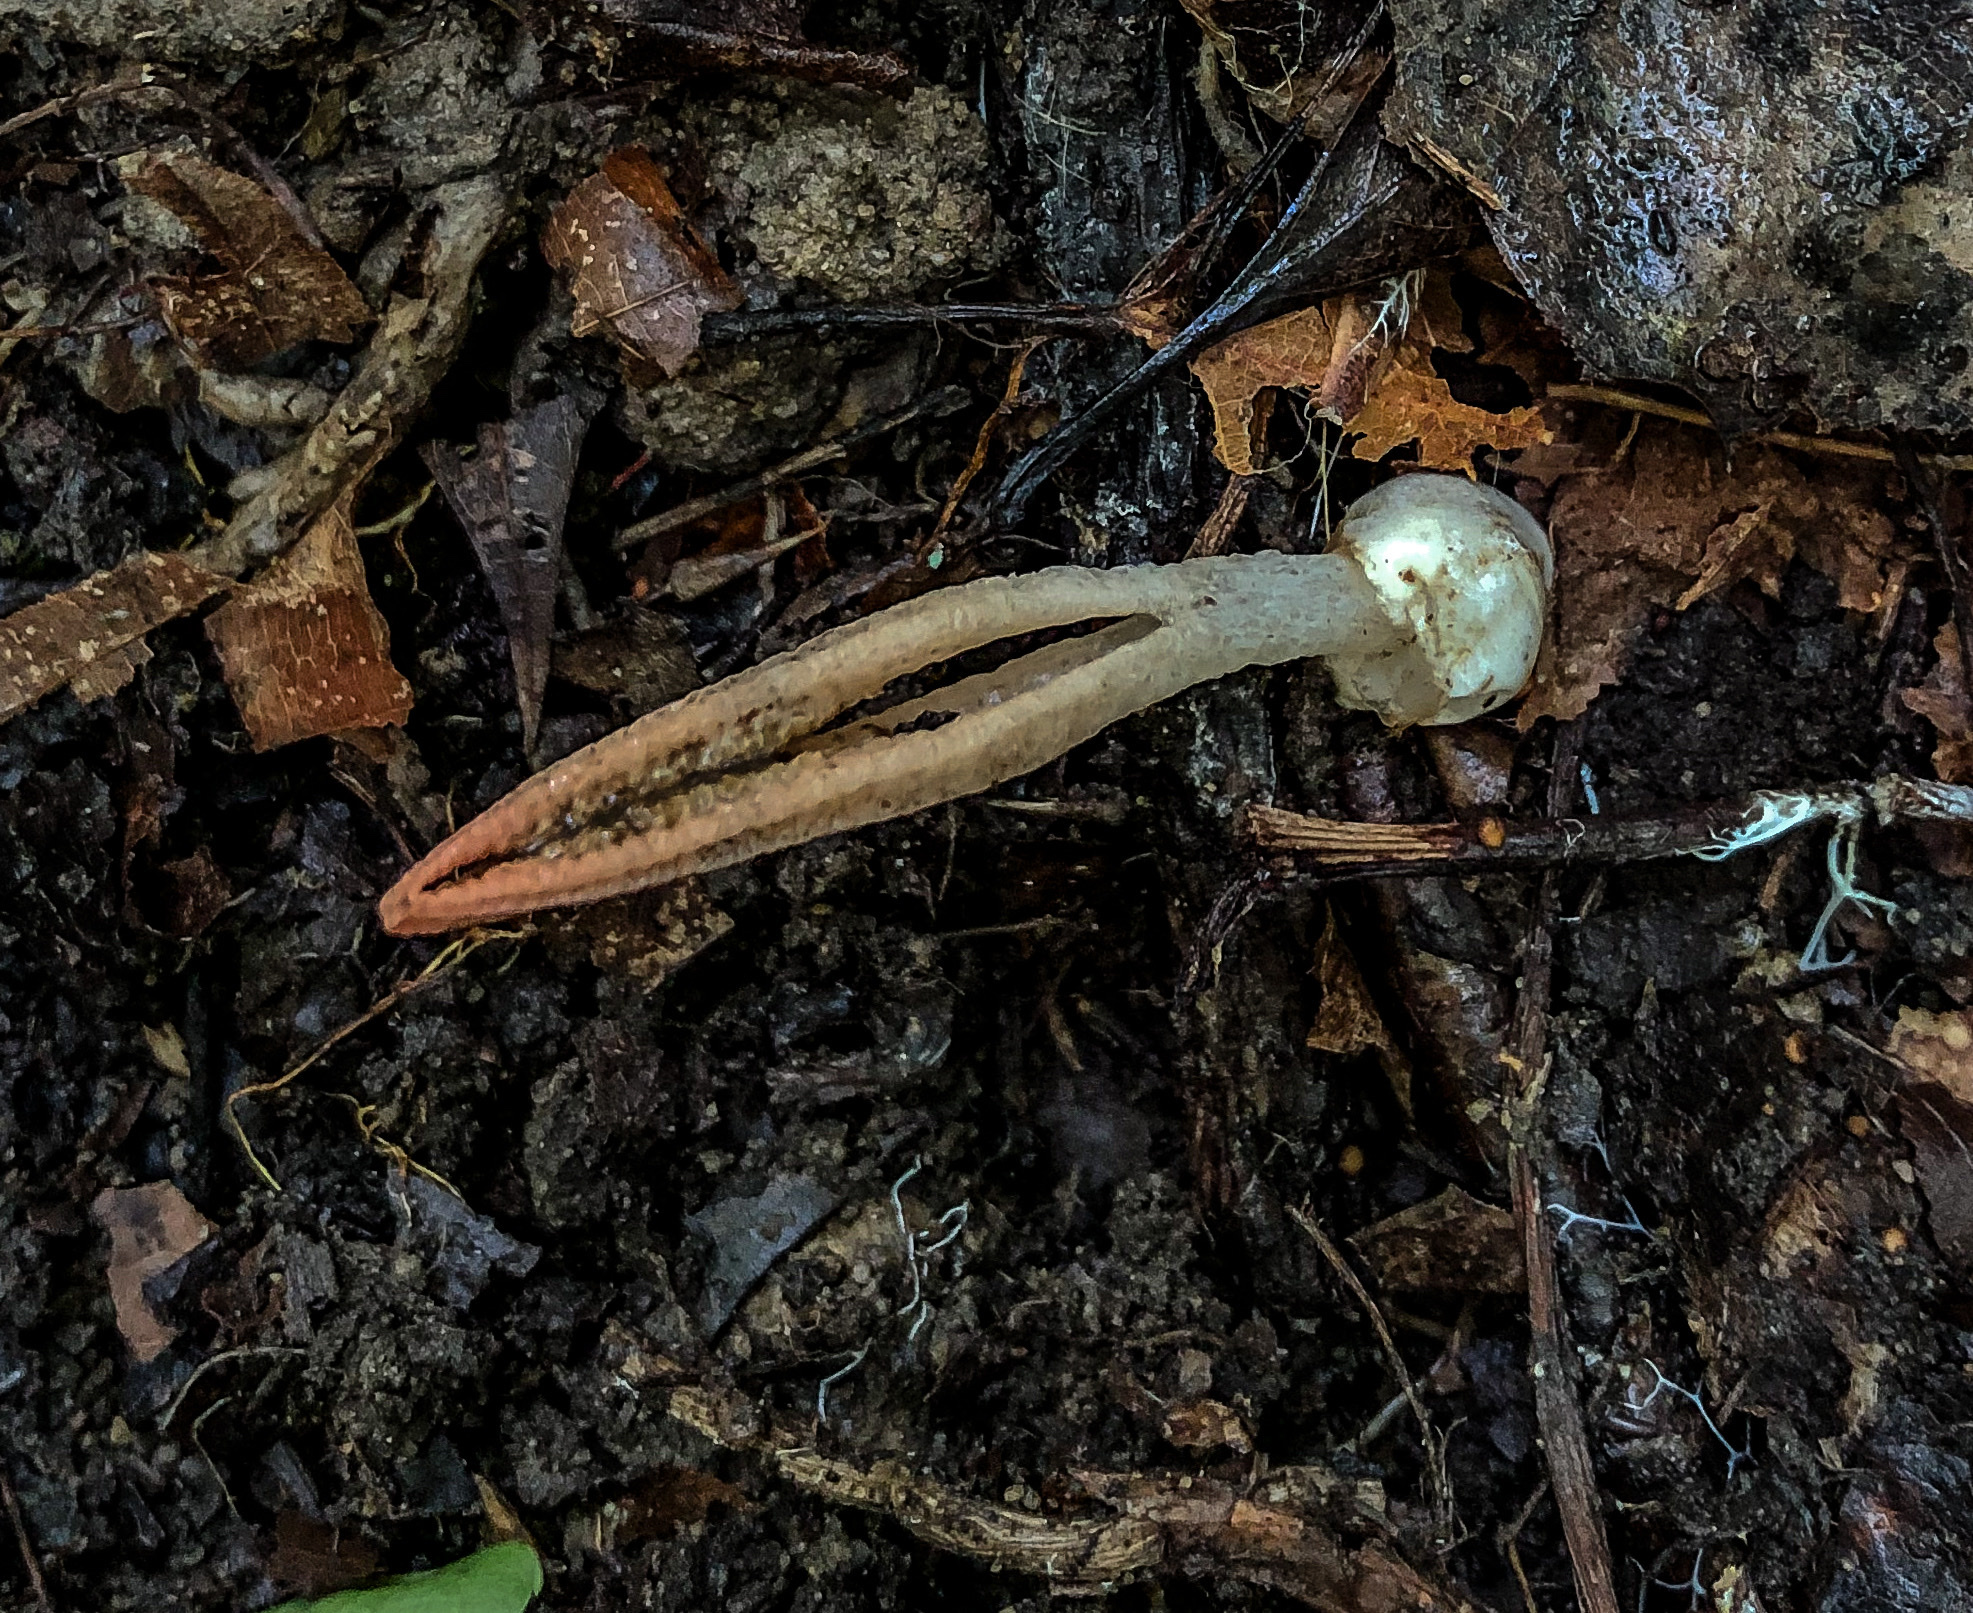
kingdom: Fungi
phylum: Basidiomycota
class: Agaricomycetes
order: Phallales
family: Phallaceae
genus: Pseudocolus
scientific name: Pseudocolus fusiformis
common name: Stinky squid
